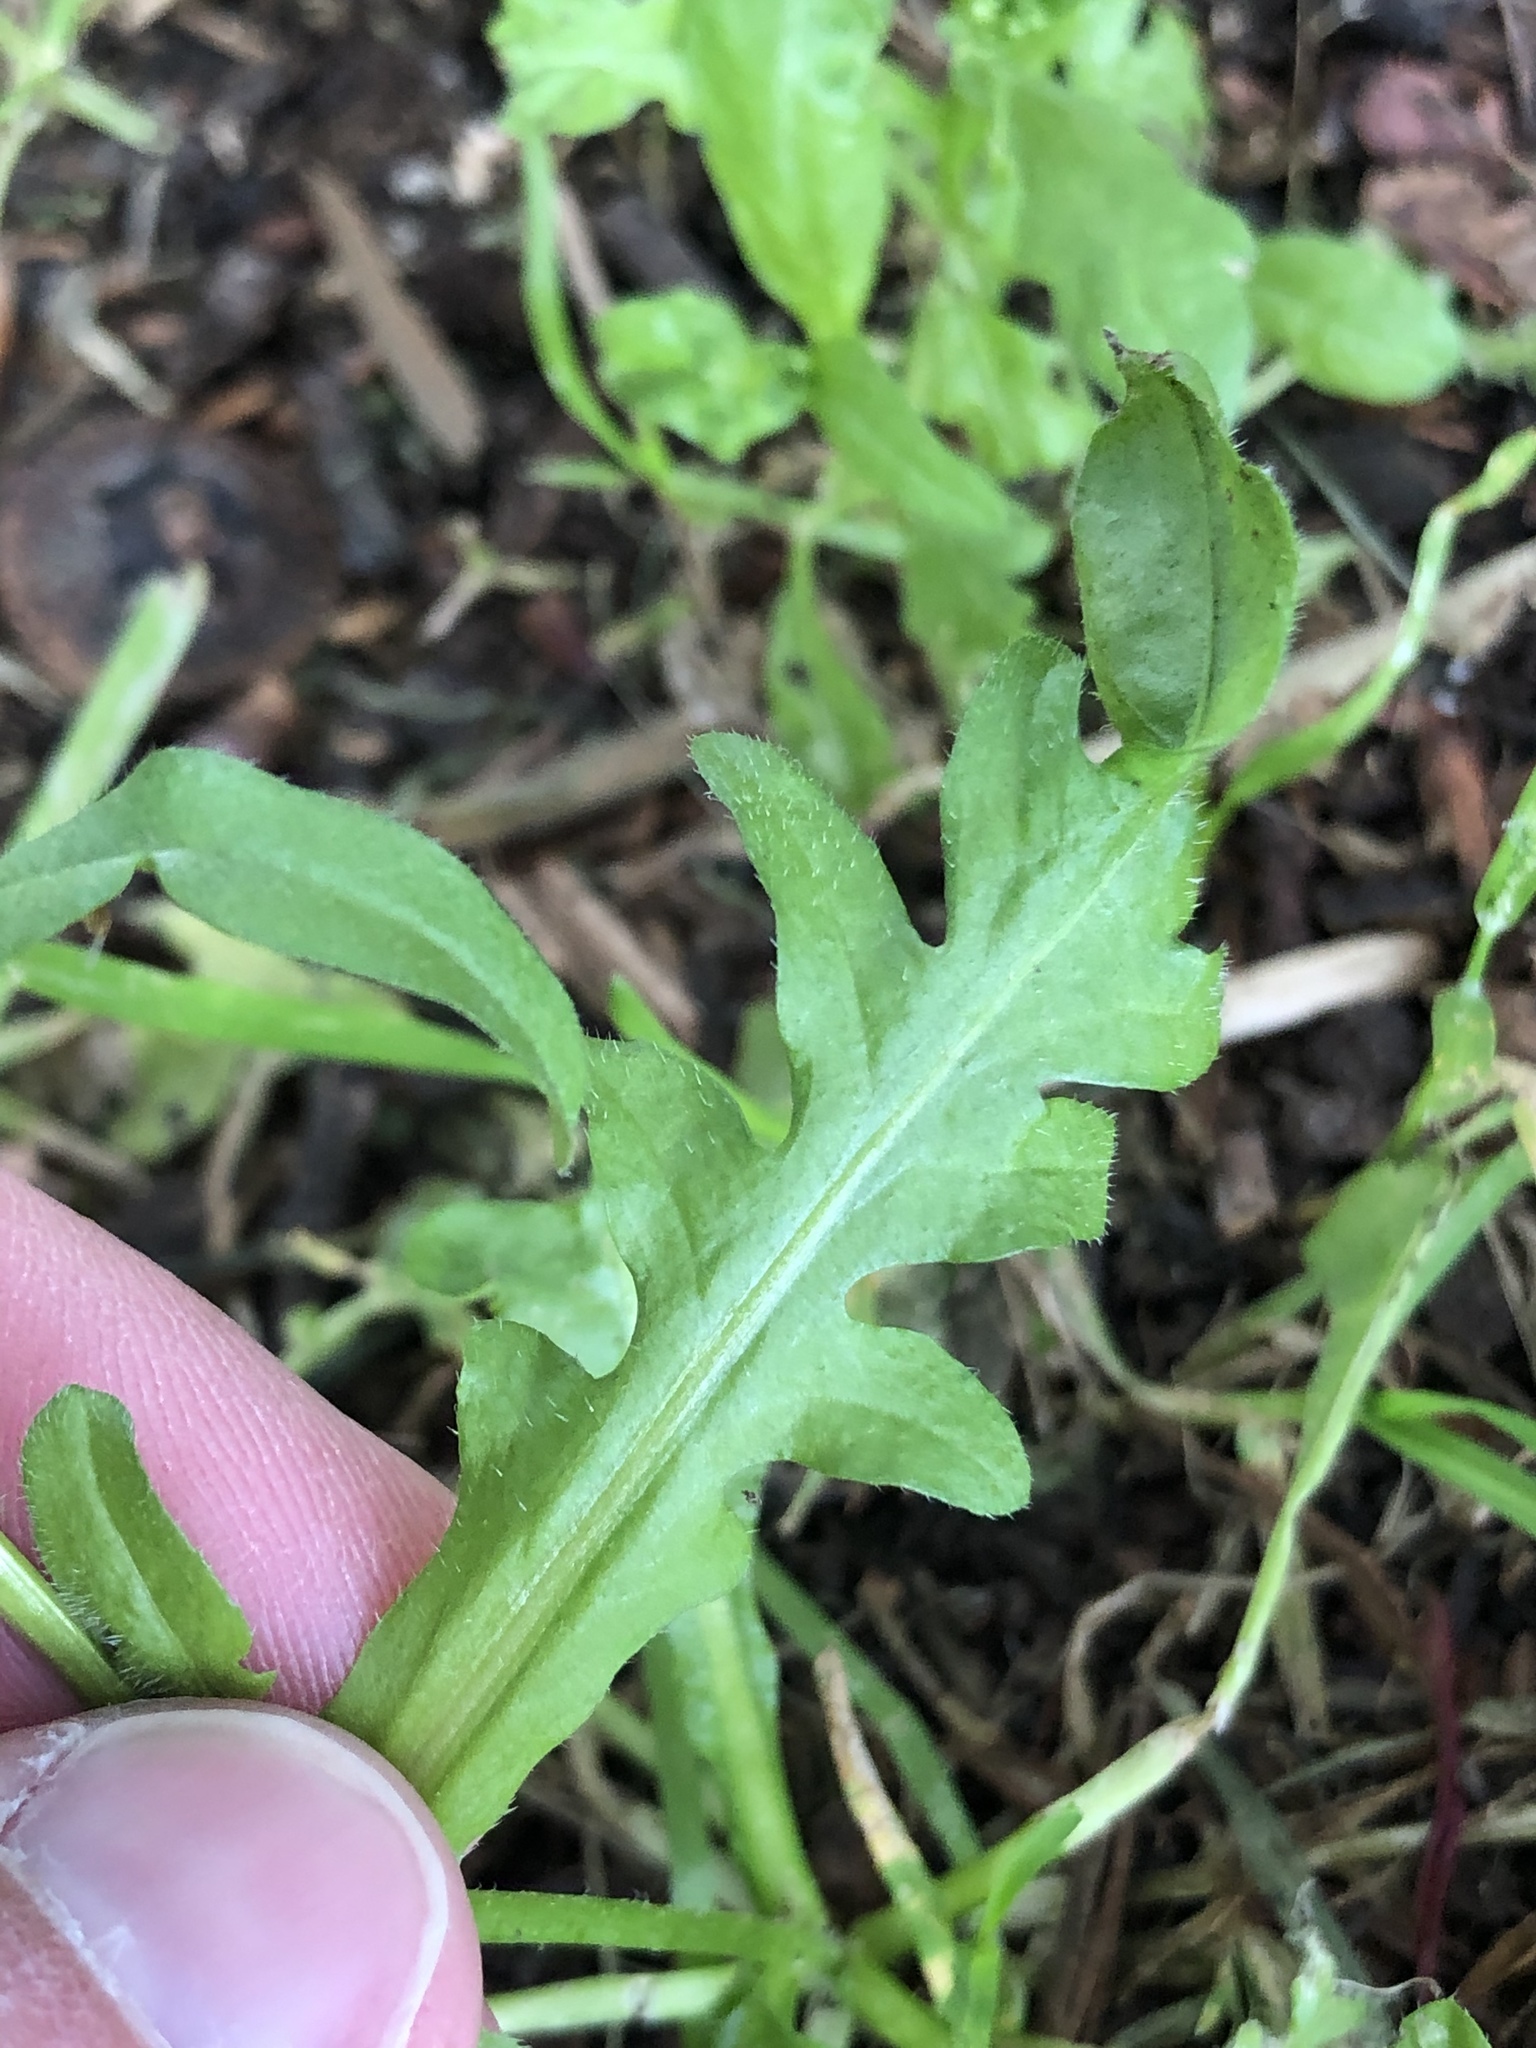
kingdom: Plantae
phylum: Tracheophyta
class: Magnoliopsida
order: Brassicales
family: Brassicaceae
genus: Capsella
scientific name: Capsella bursa-pastoris
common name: Shepherd's purse
